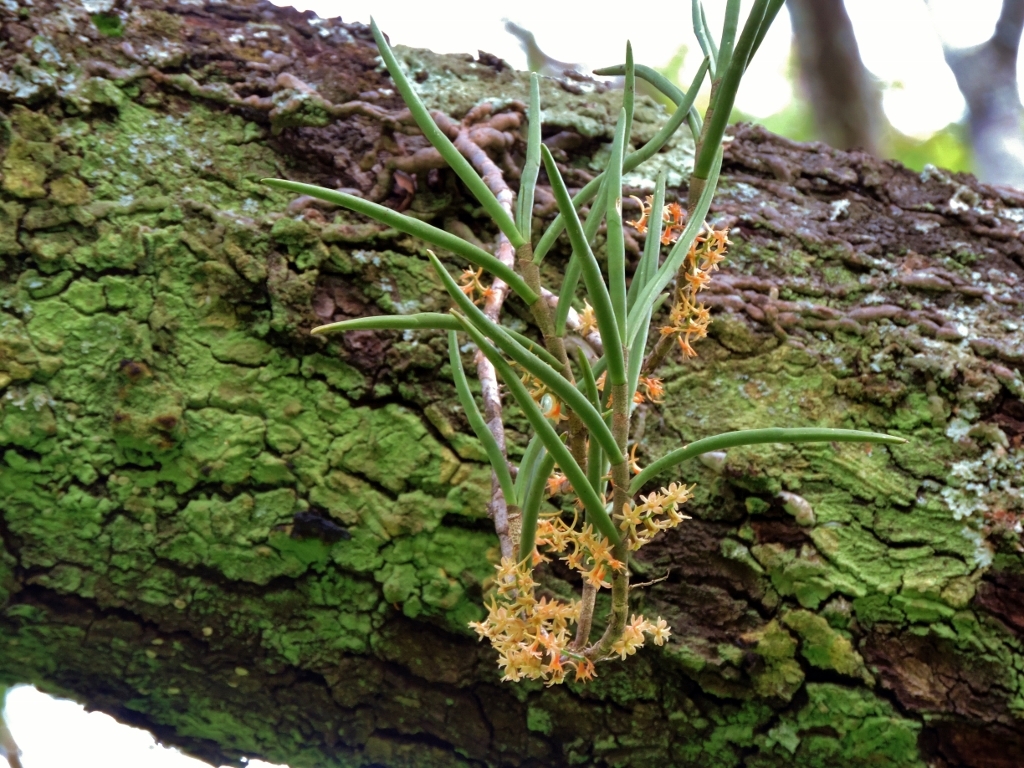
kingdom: Plantae
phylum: Tracheophyta
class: Liliopsida
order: Asparagales
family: Orchidaceae
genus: Tridactyle
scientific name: Tridactyle tridentata
